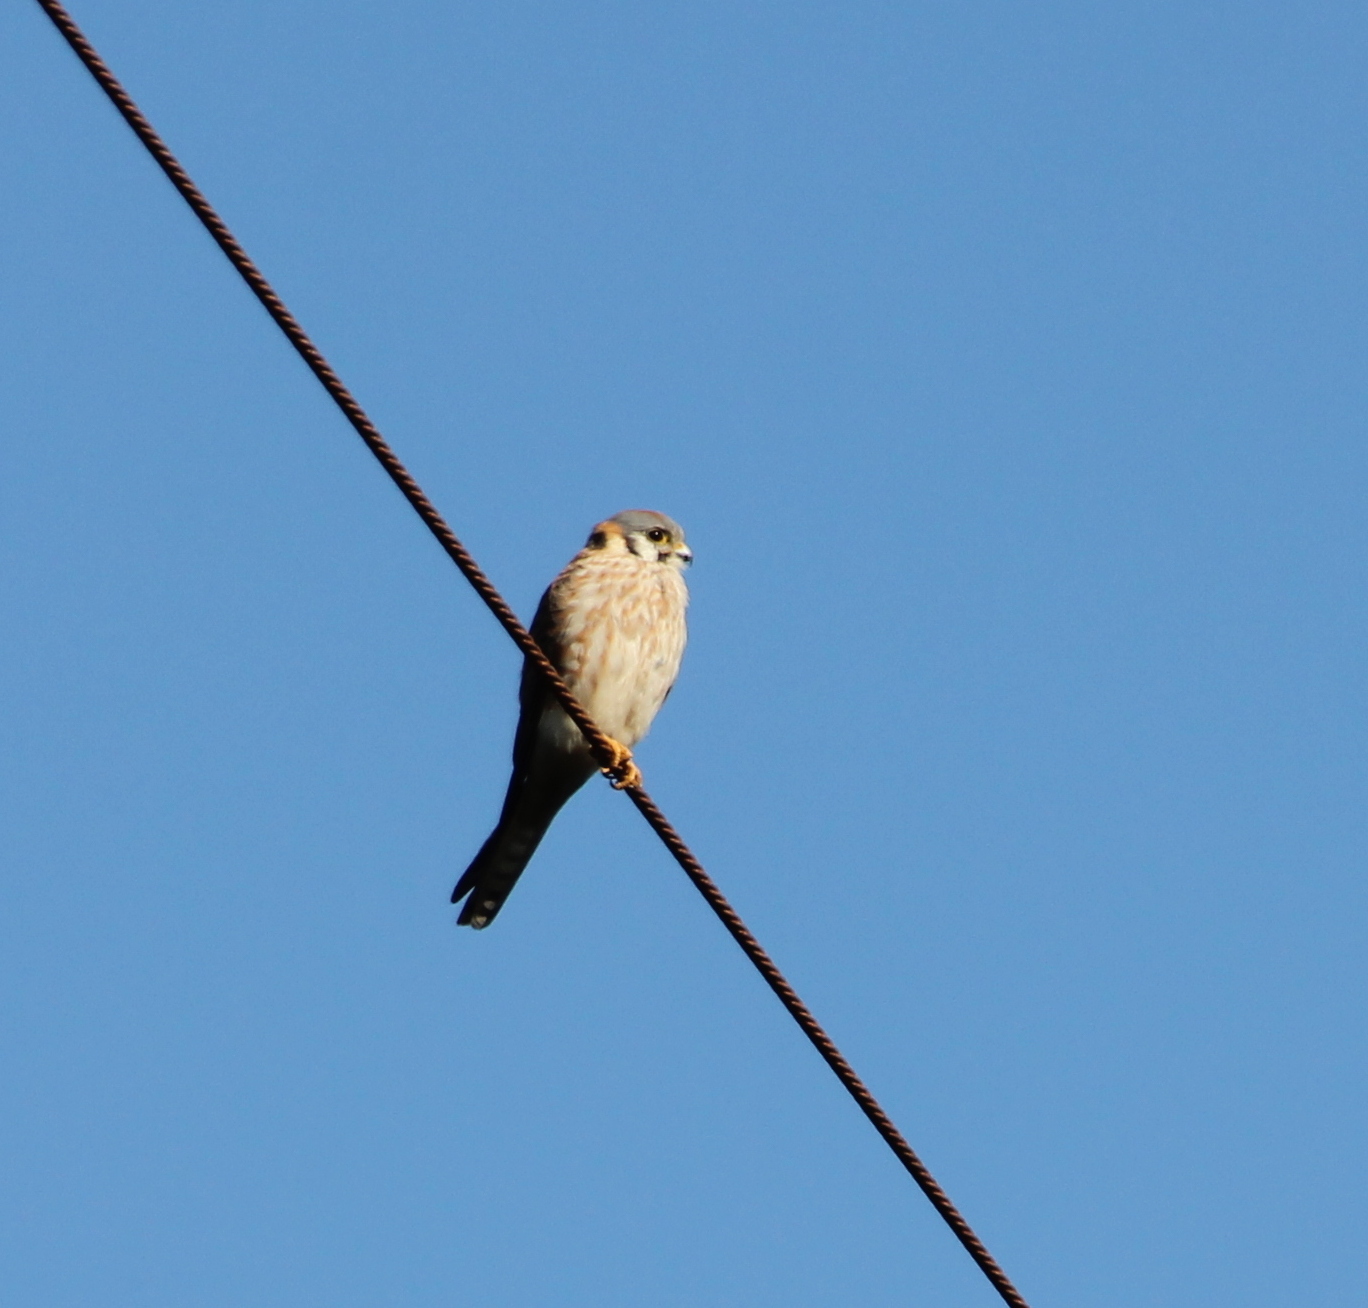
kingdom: Animalia
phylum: Chordata
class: Aves
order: Falconiformes
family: Falconidae
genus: Falco
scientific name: Falco sparverius
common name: American kestrel
